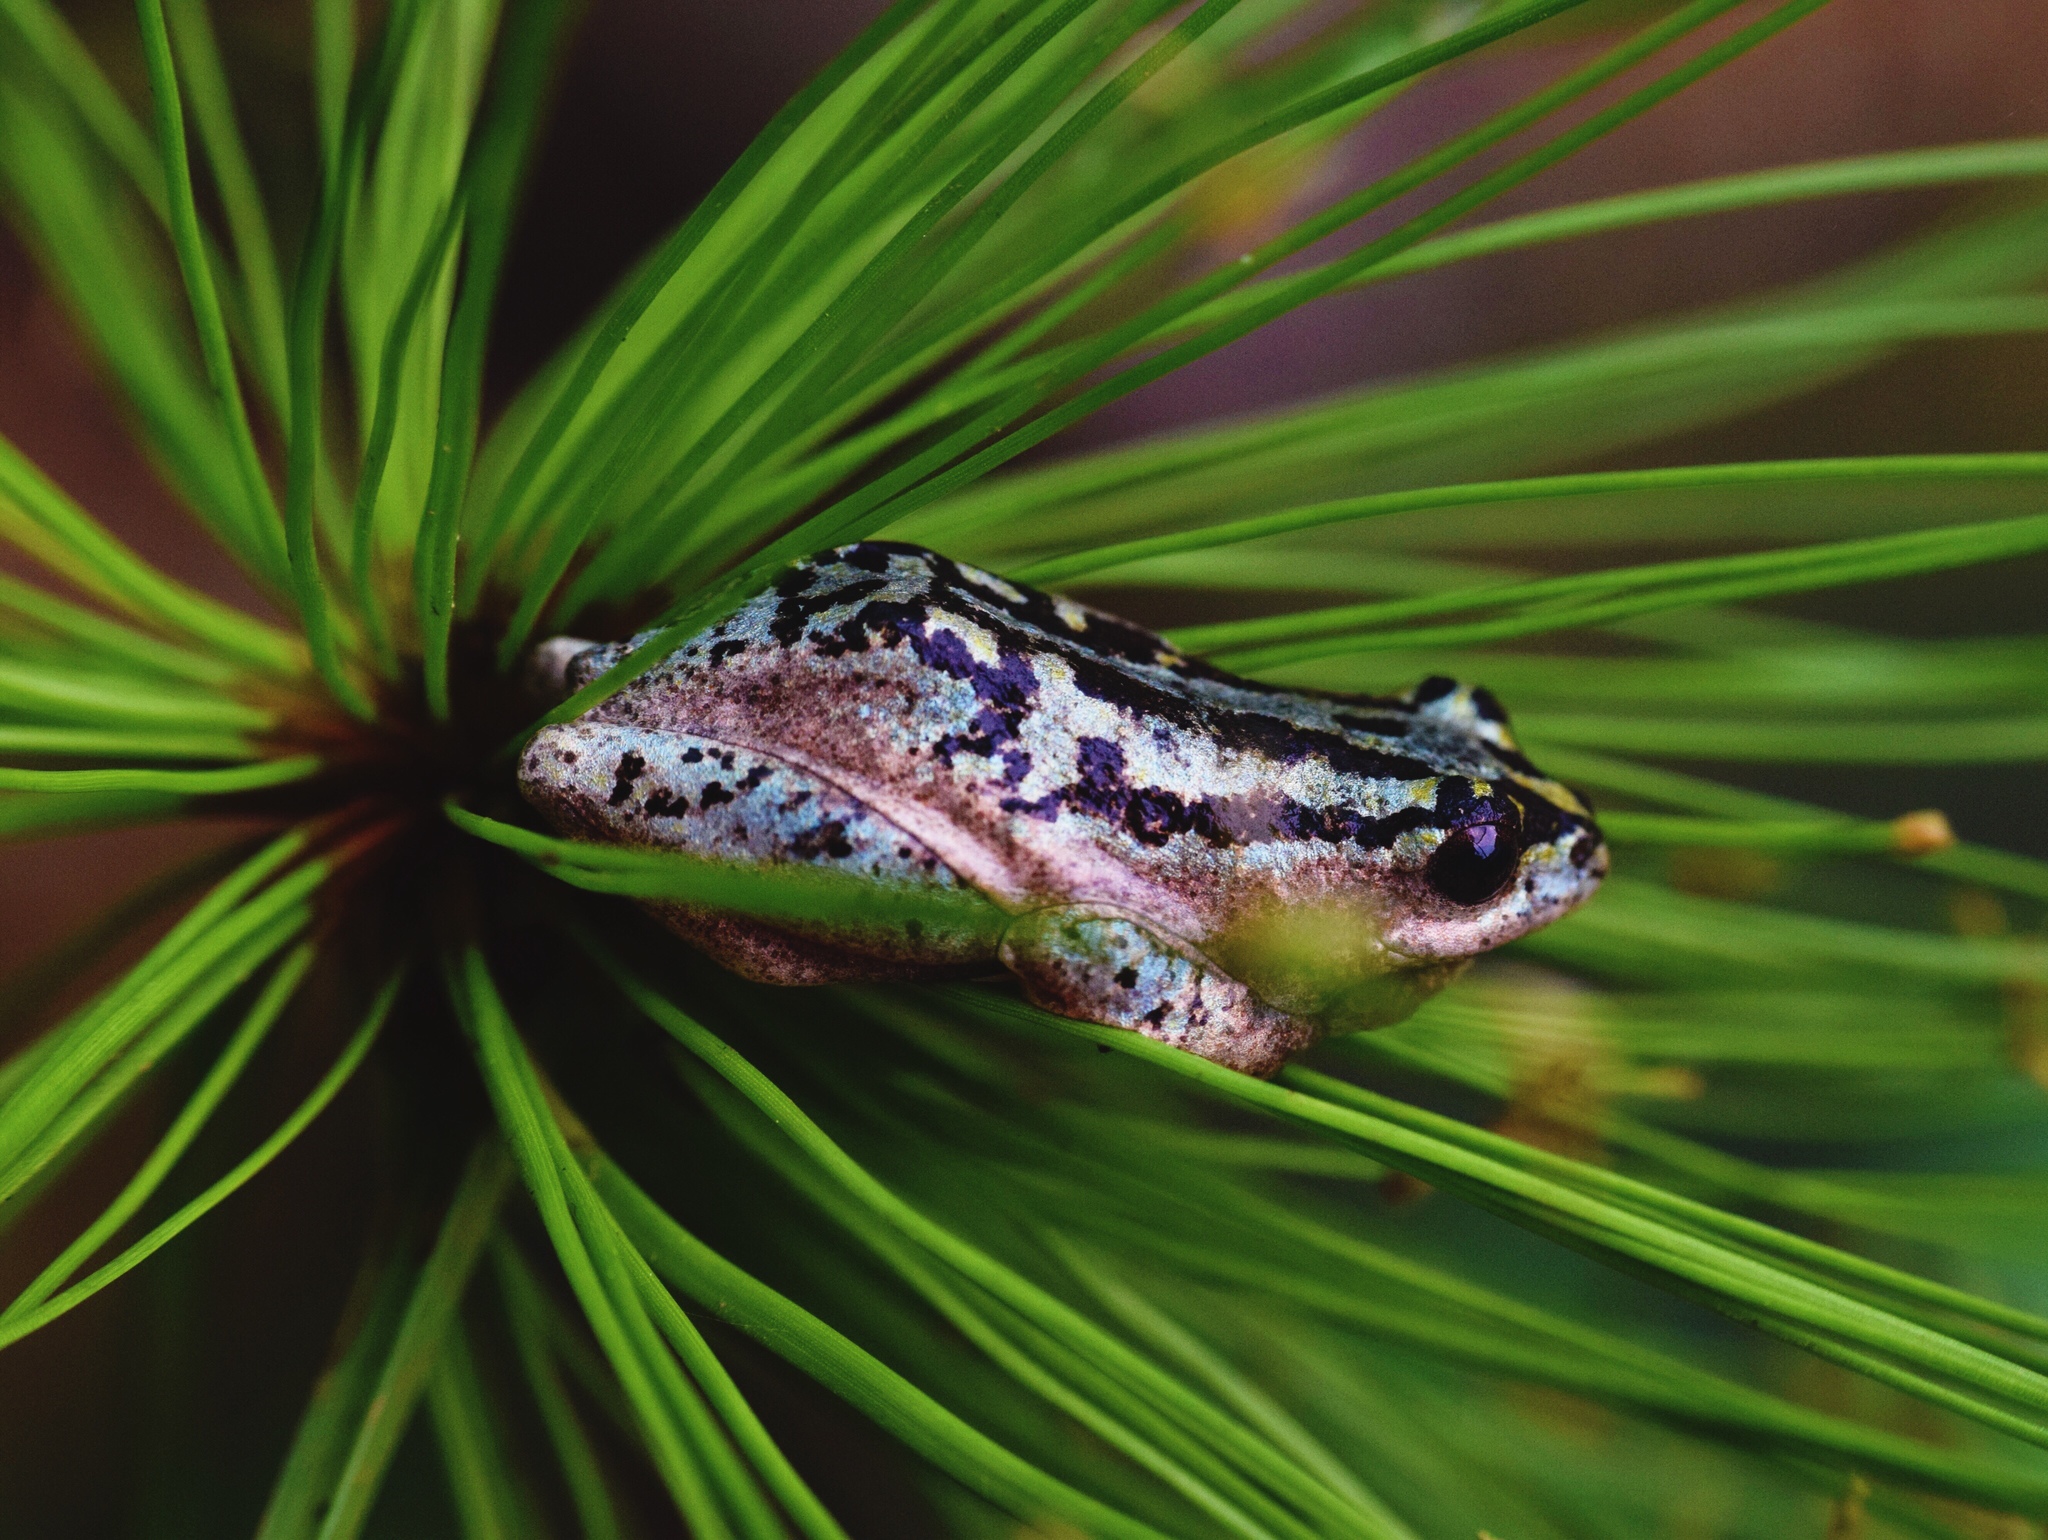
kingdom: Animalia
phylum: Chordata
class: Amphibia
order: Anura
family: Hyperoliidae
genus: Hyperolius
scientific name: Hyperolius marmoratus
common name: Painted reed frog
